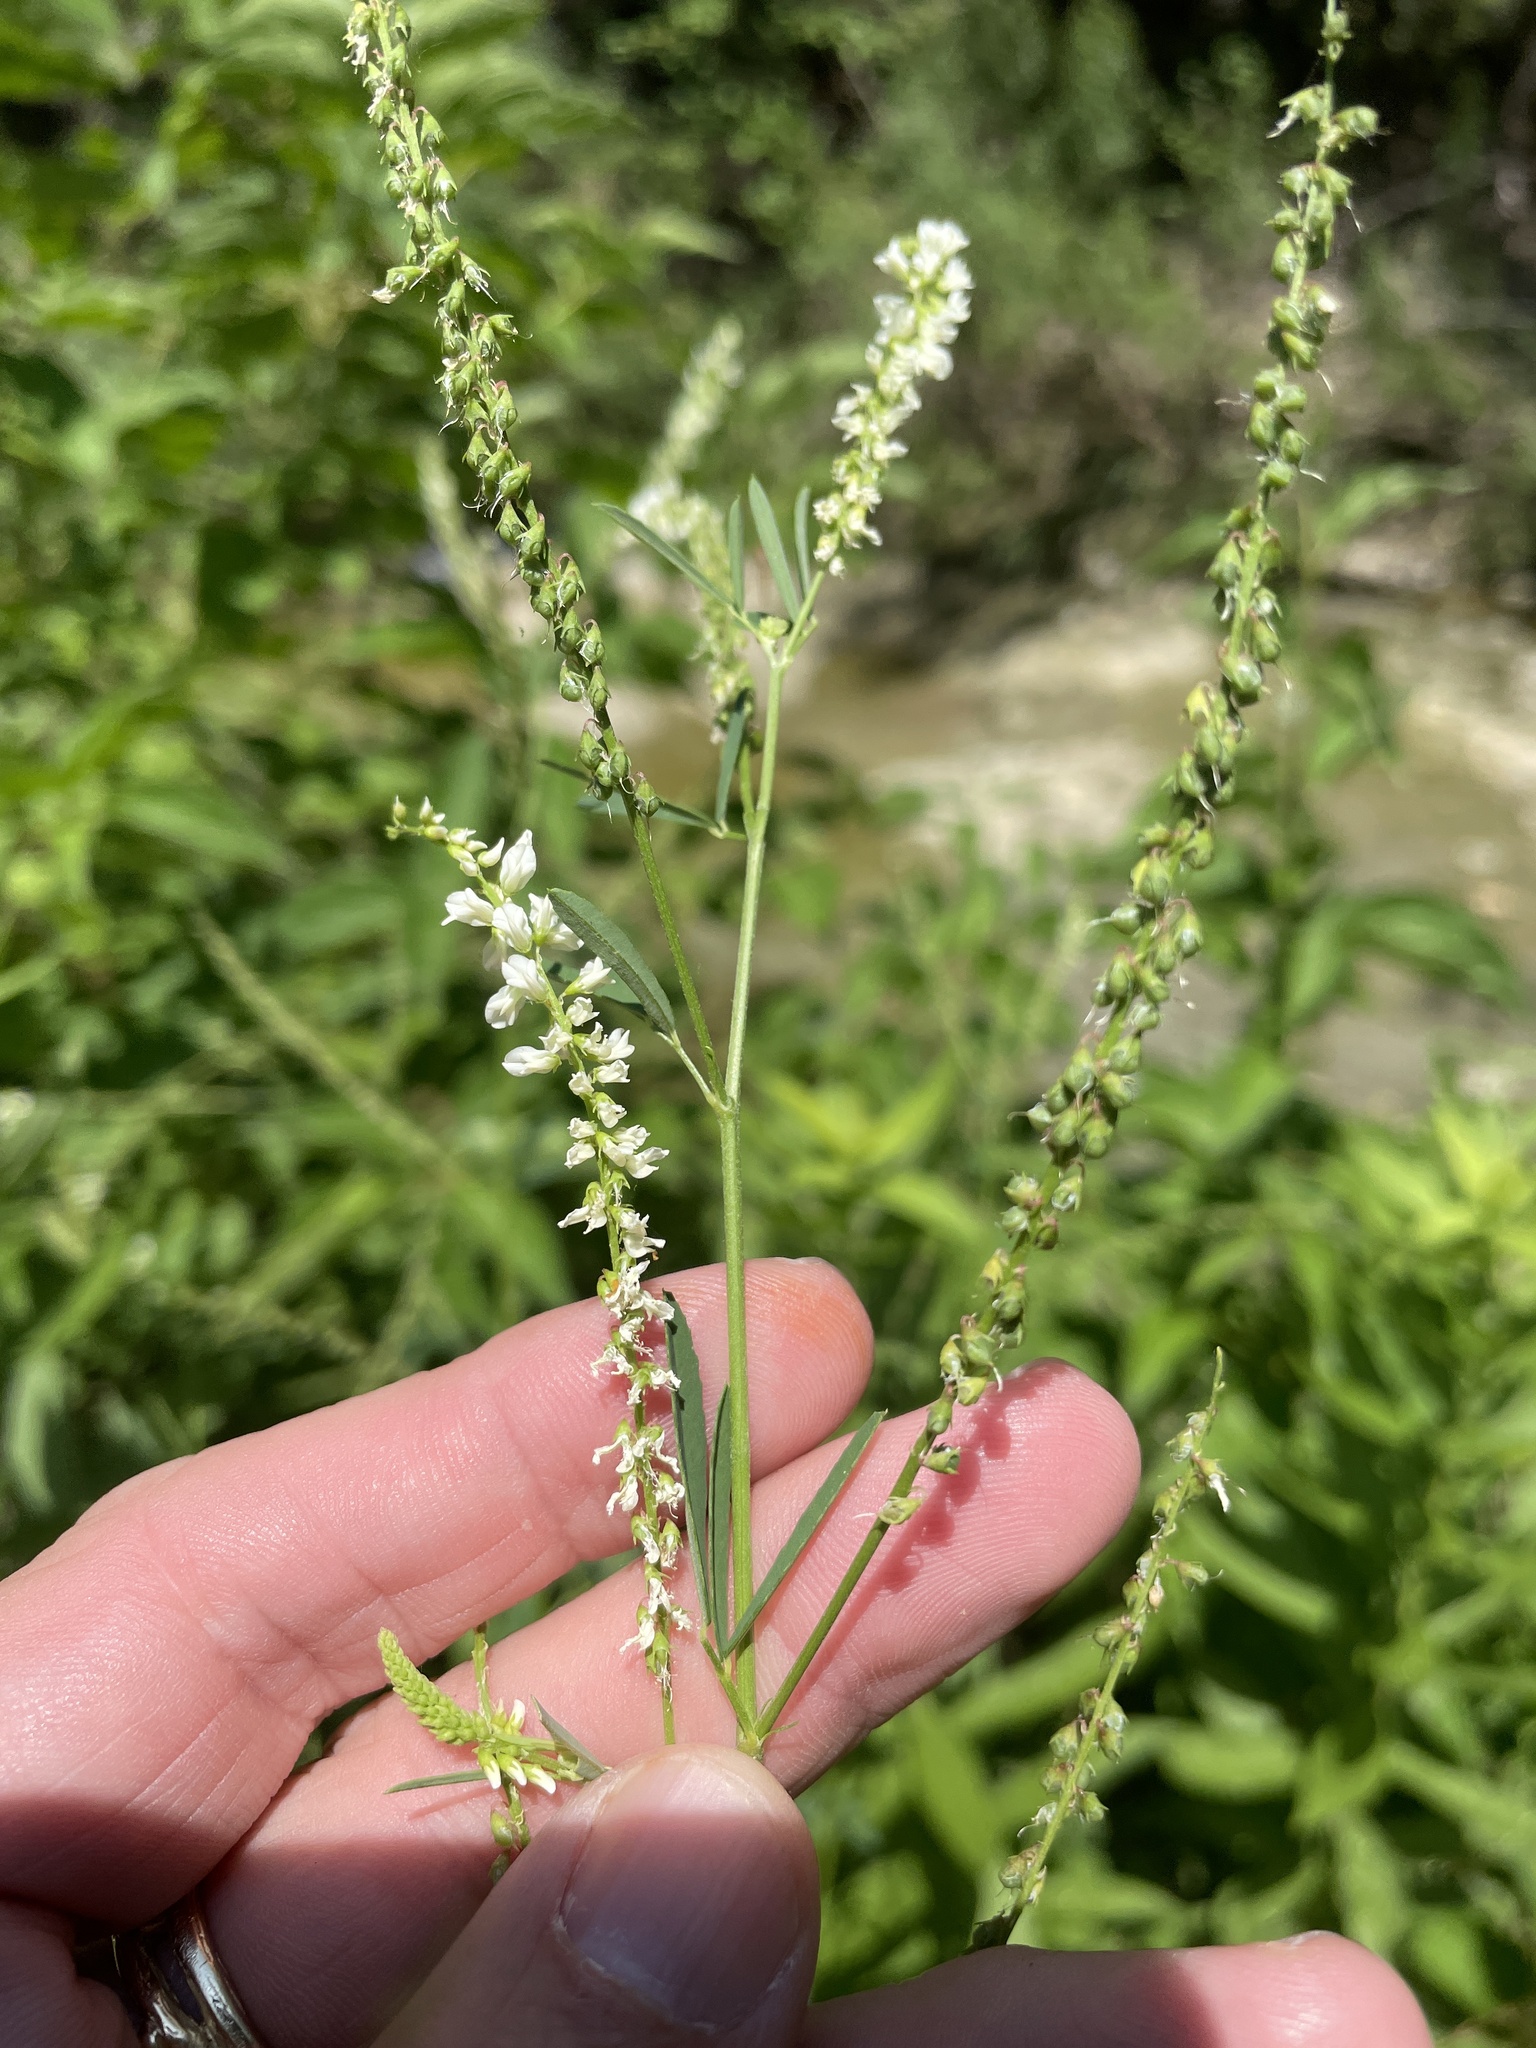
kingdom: Plantae
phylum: Tracheophyta
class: Magnoliopsida
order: Fabales
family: Fabaceae
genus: Melilotus
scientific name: Melilotus albus
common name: White melilot
